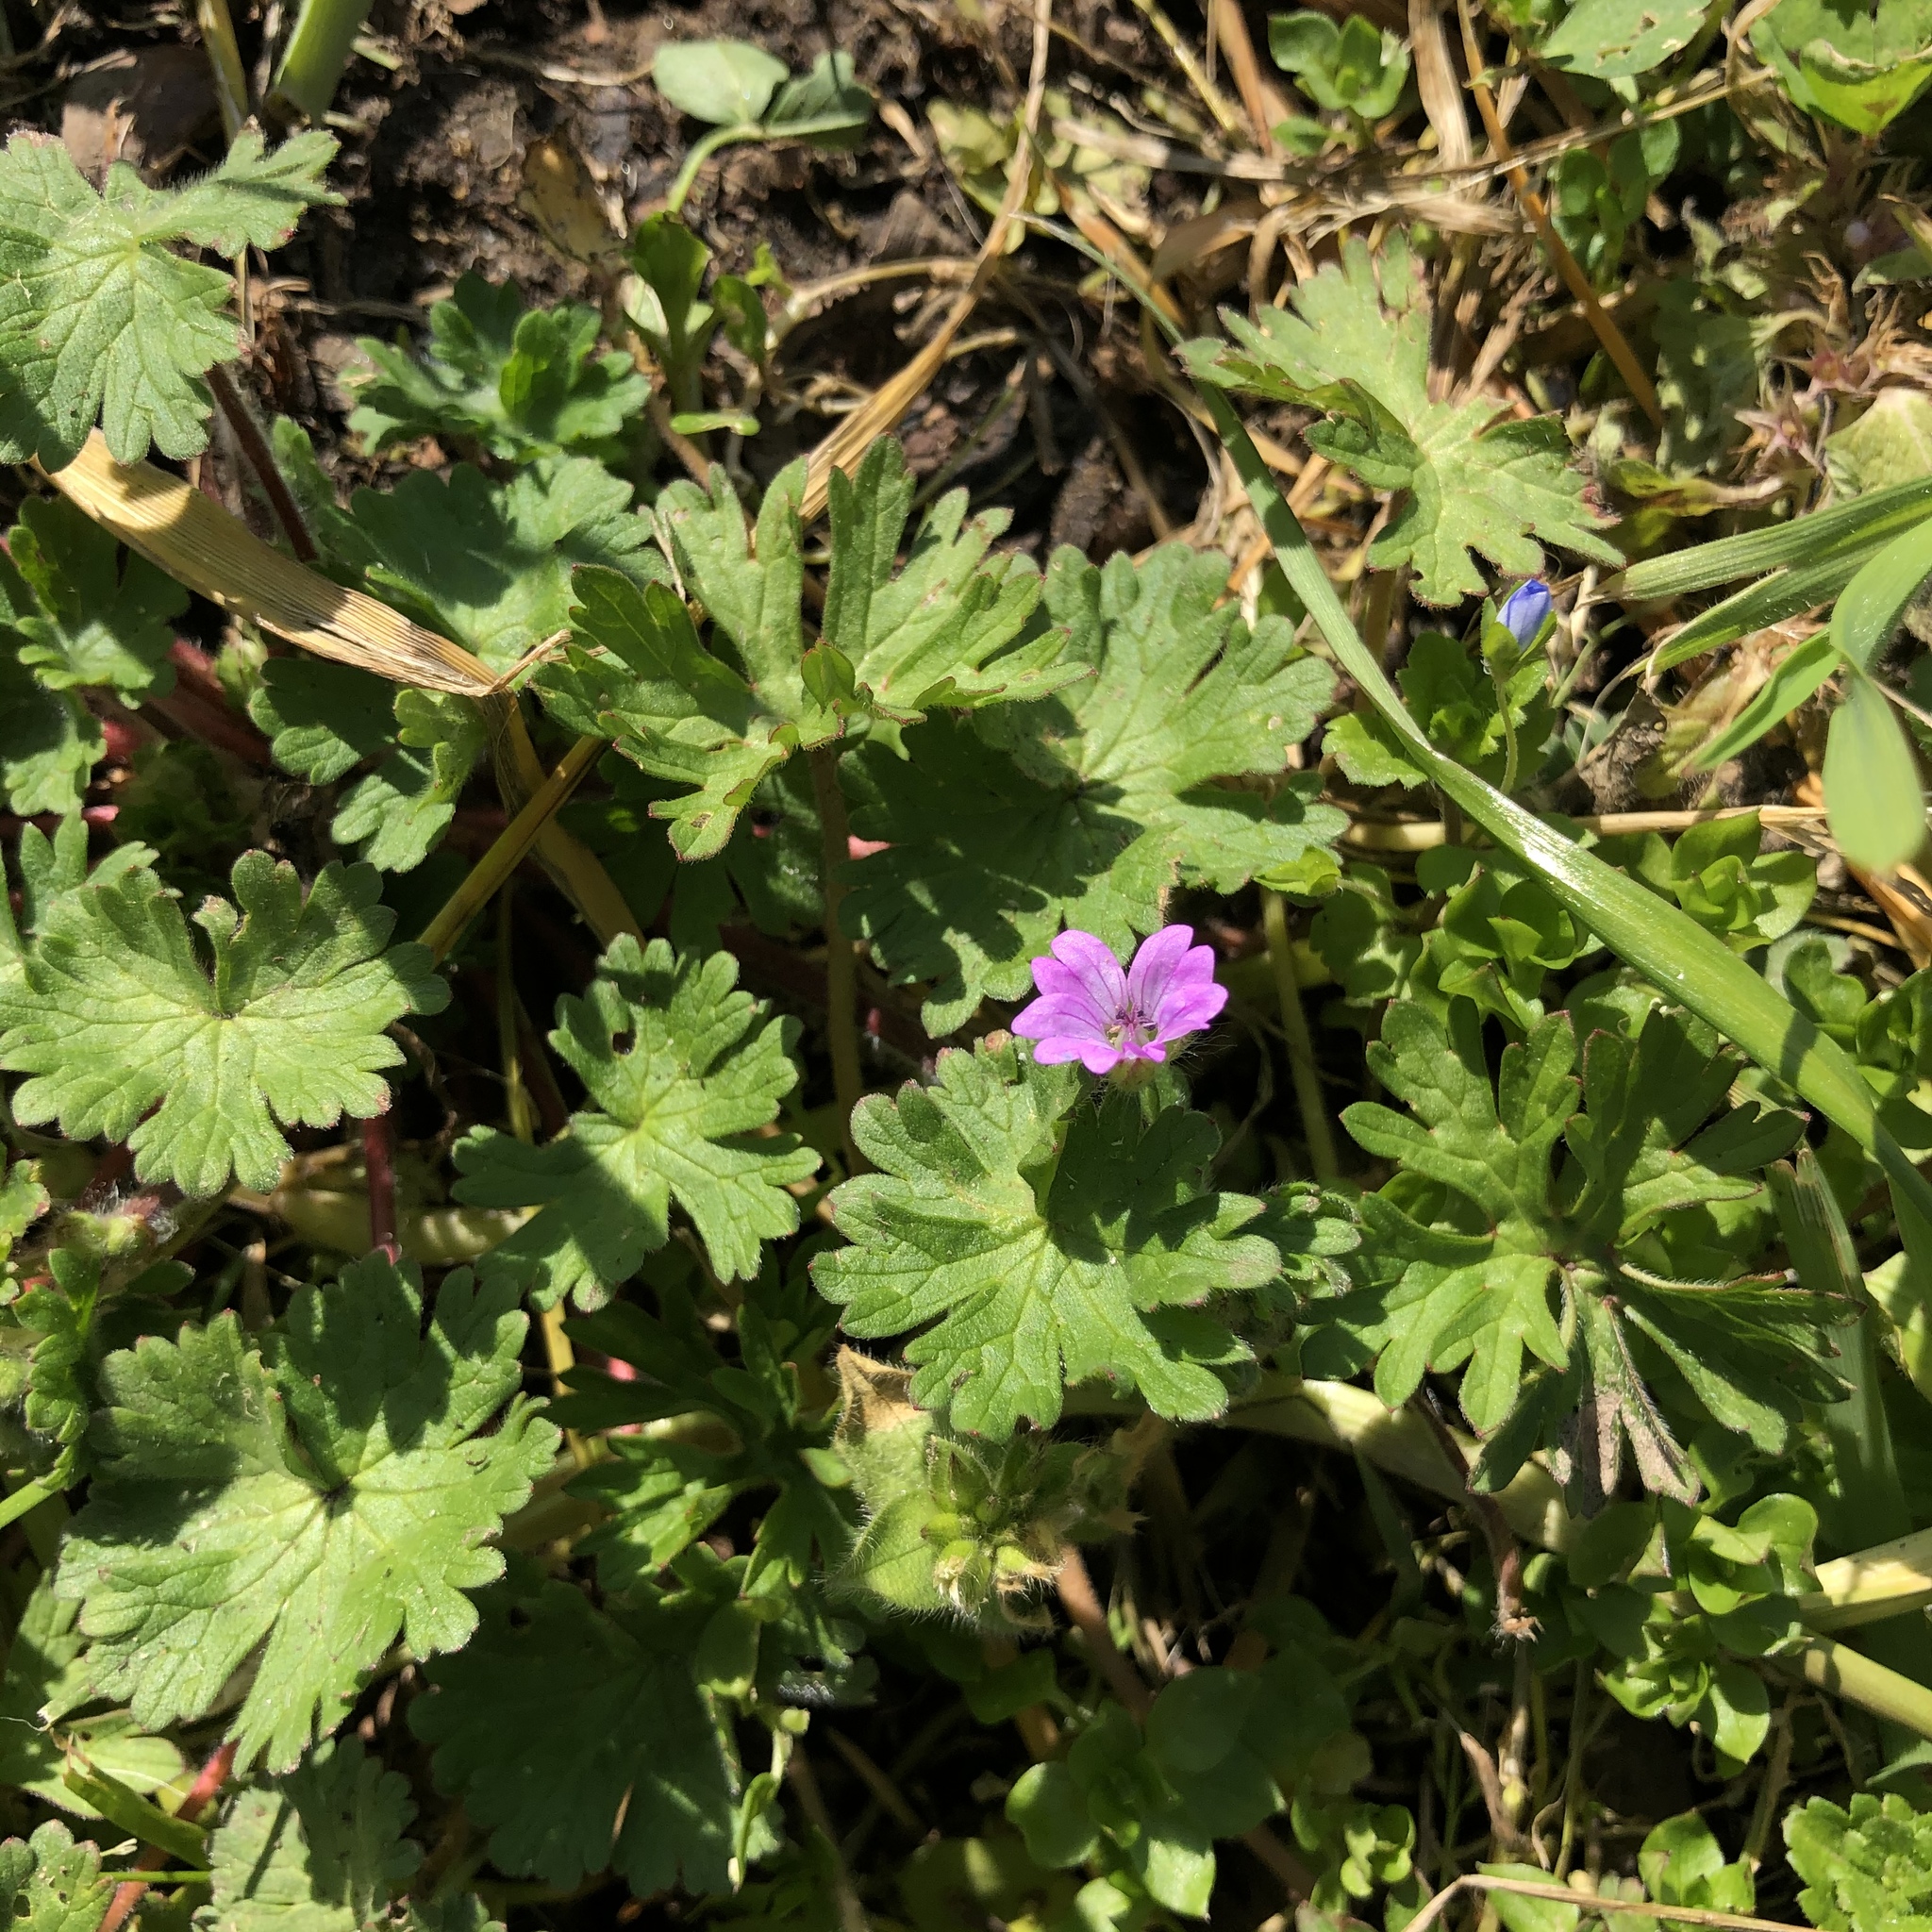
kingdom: Plantae
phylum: Tracheophyta
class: Magnoliopsida
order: Geraniales
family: Geraniaceae
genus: Geranium
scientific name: Geranium molle
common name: Dove's-foot crane's-bill
